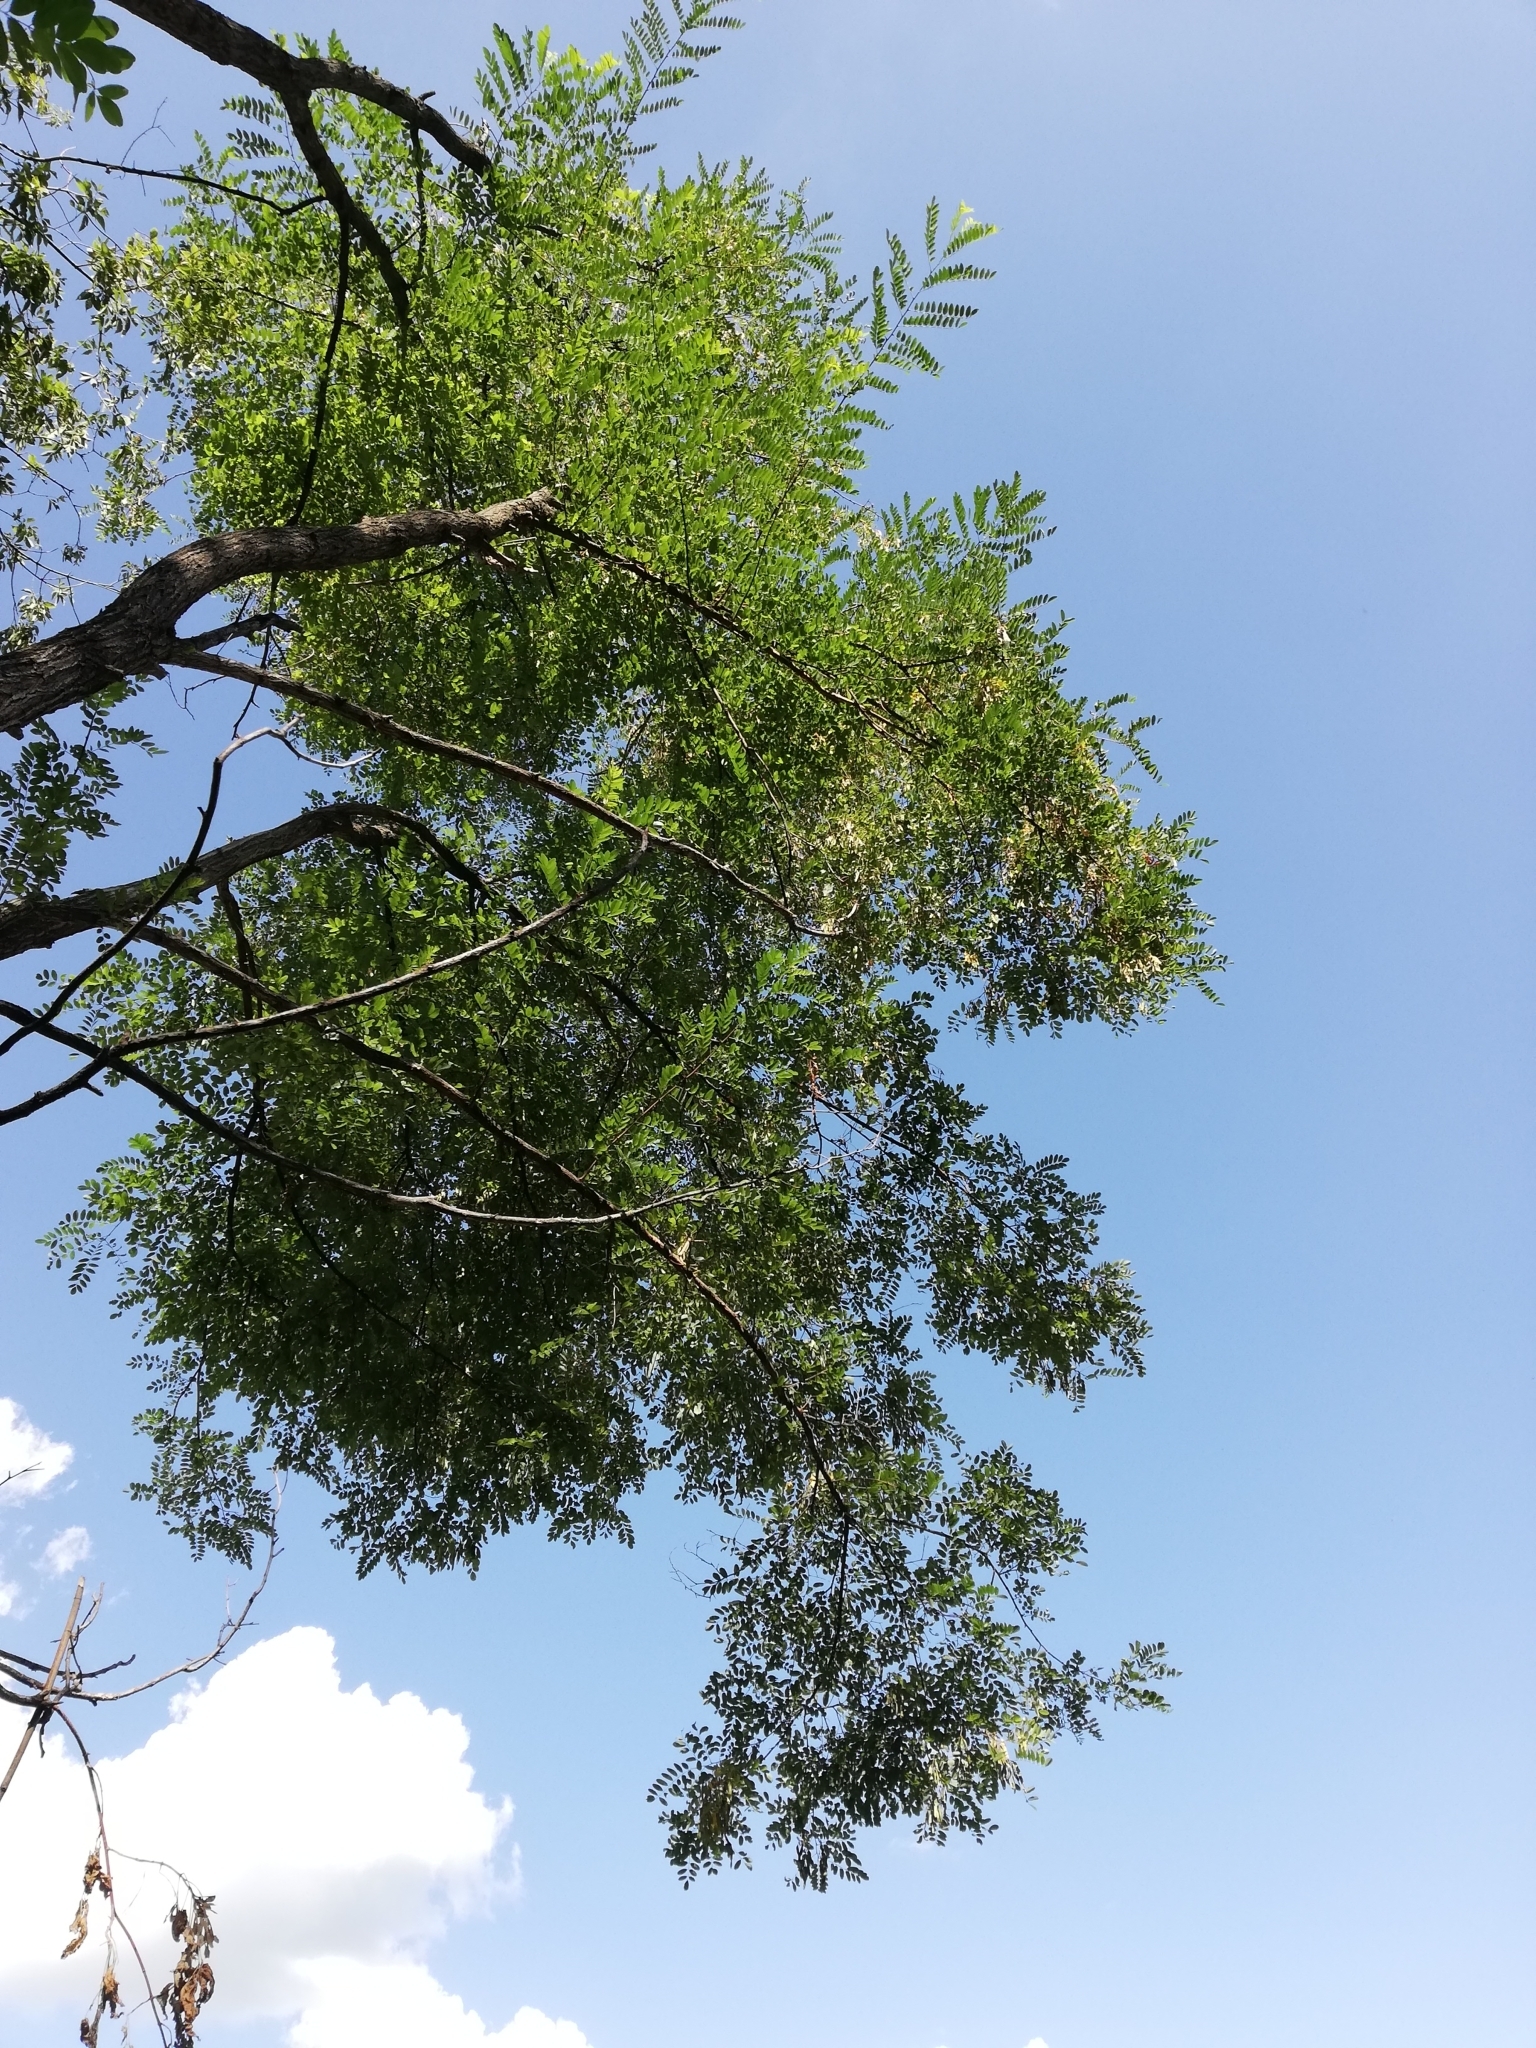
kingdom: Plantae
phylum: Tracheophyta
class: Magnoliopsida
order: Fabales
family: Fabaceae
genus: Robinia
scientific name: Robinia pseudoacacia
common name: Black locust
